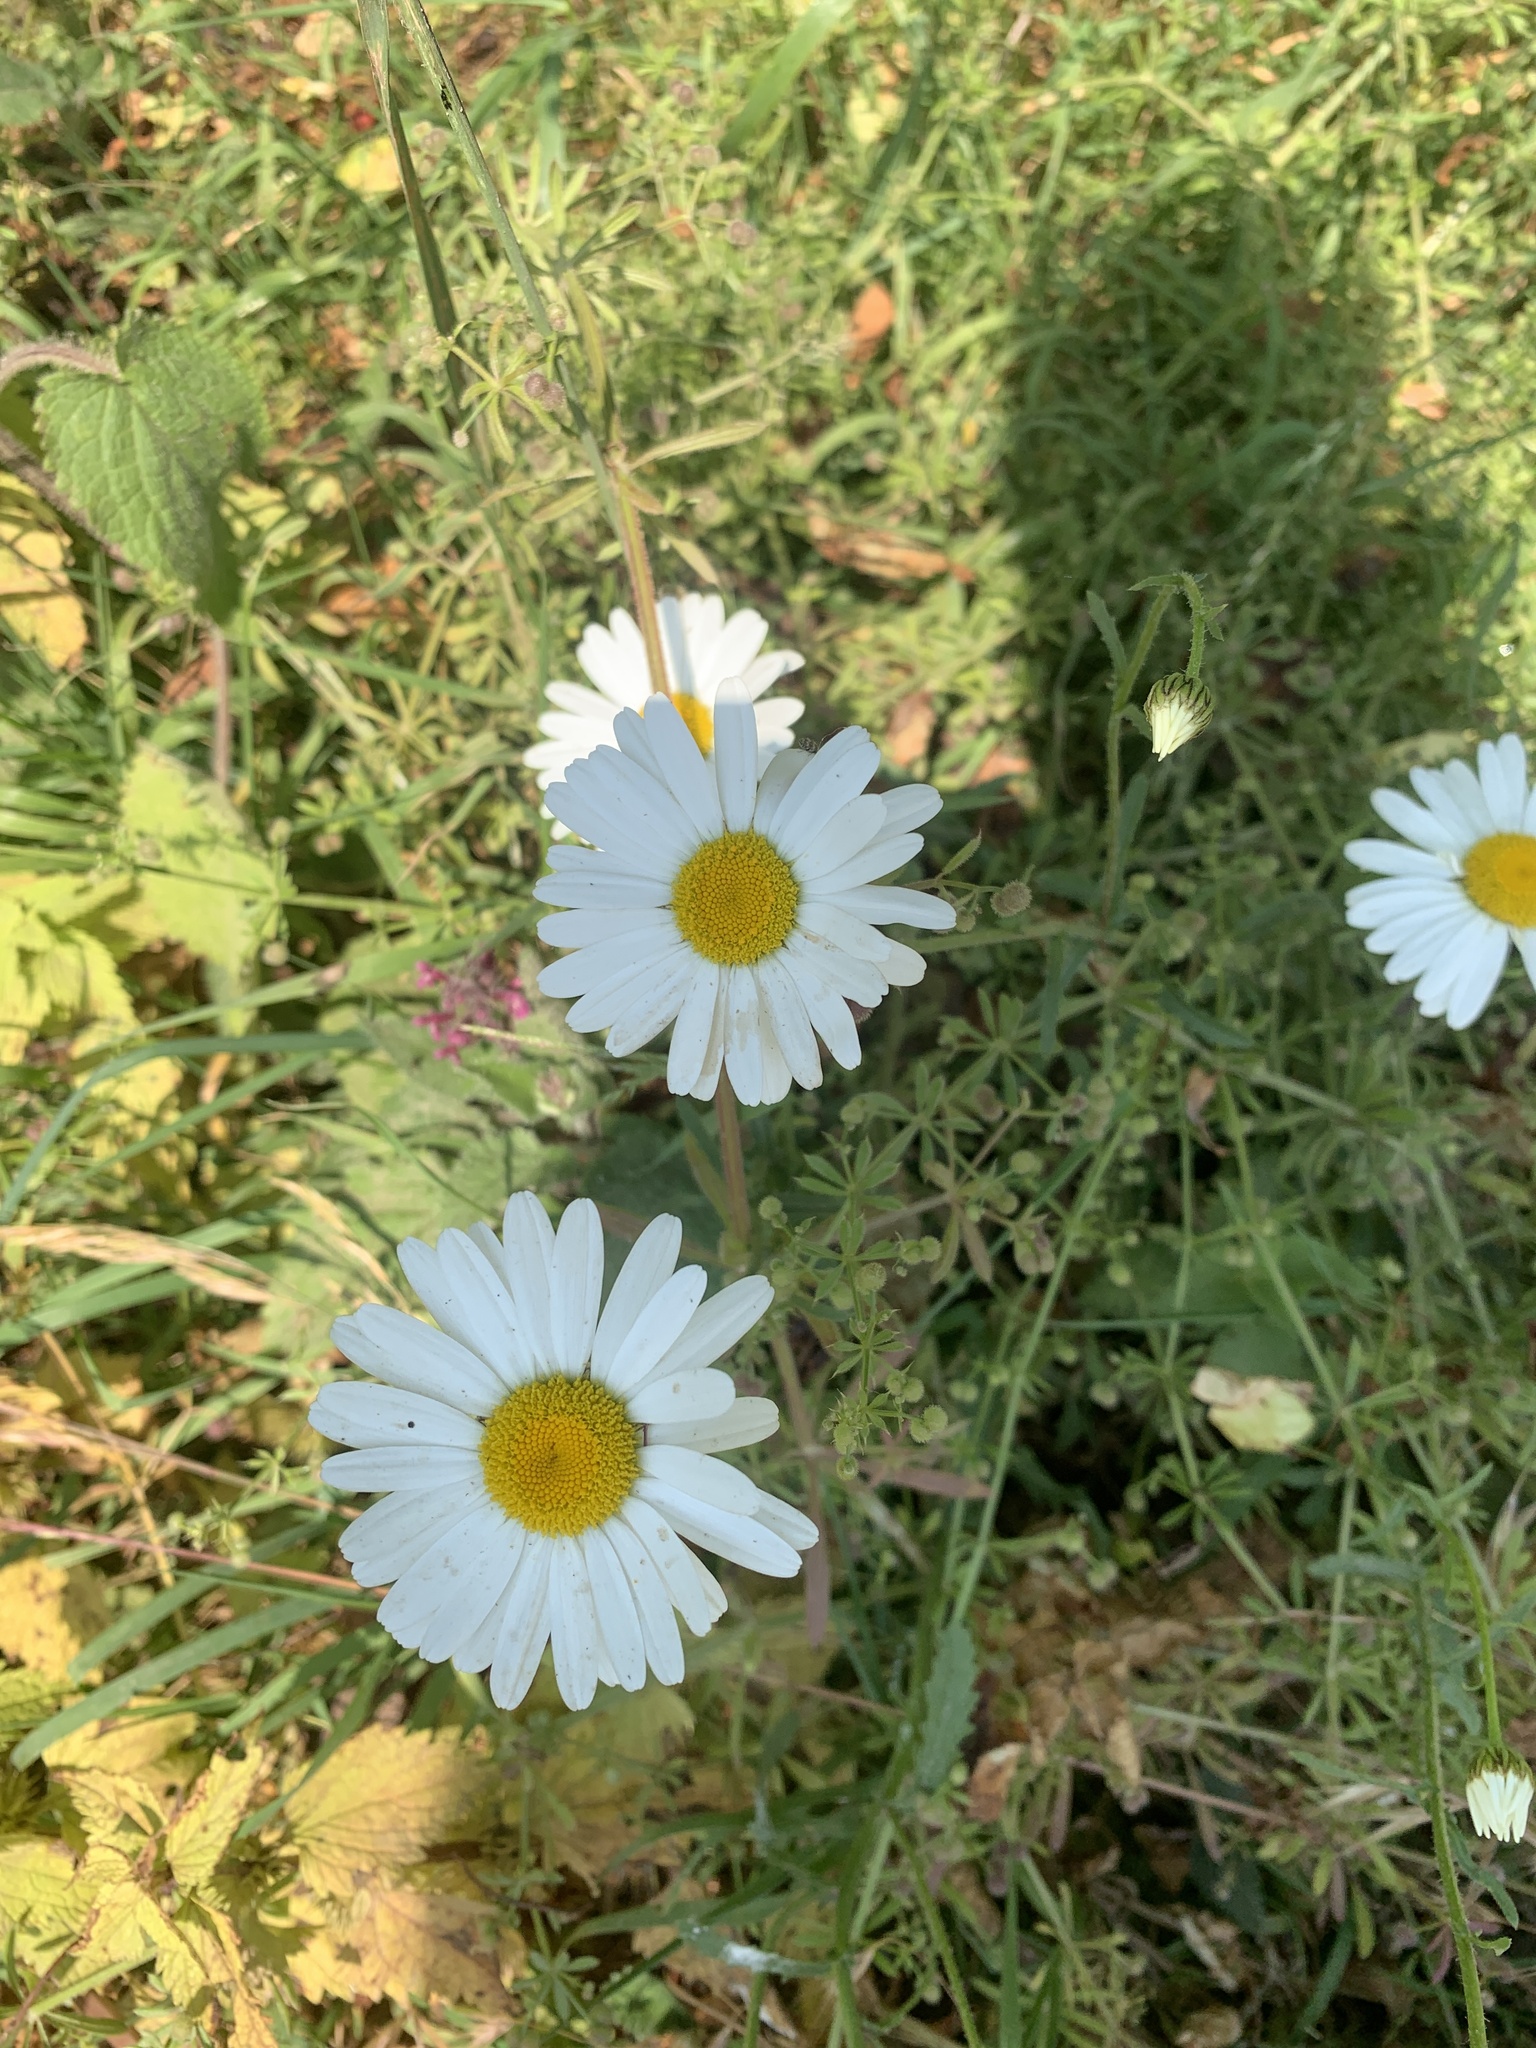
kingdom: Plantae
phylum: Tracheophyta
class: Magnoliopsida
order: Asterales
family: Asteraceae
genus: Leucanthemum
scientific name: Leucanthemum vulgare
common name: Oxeye daisy
